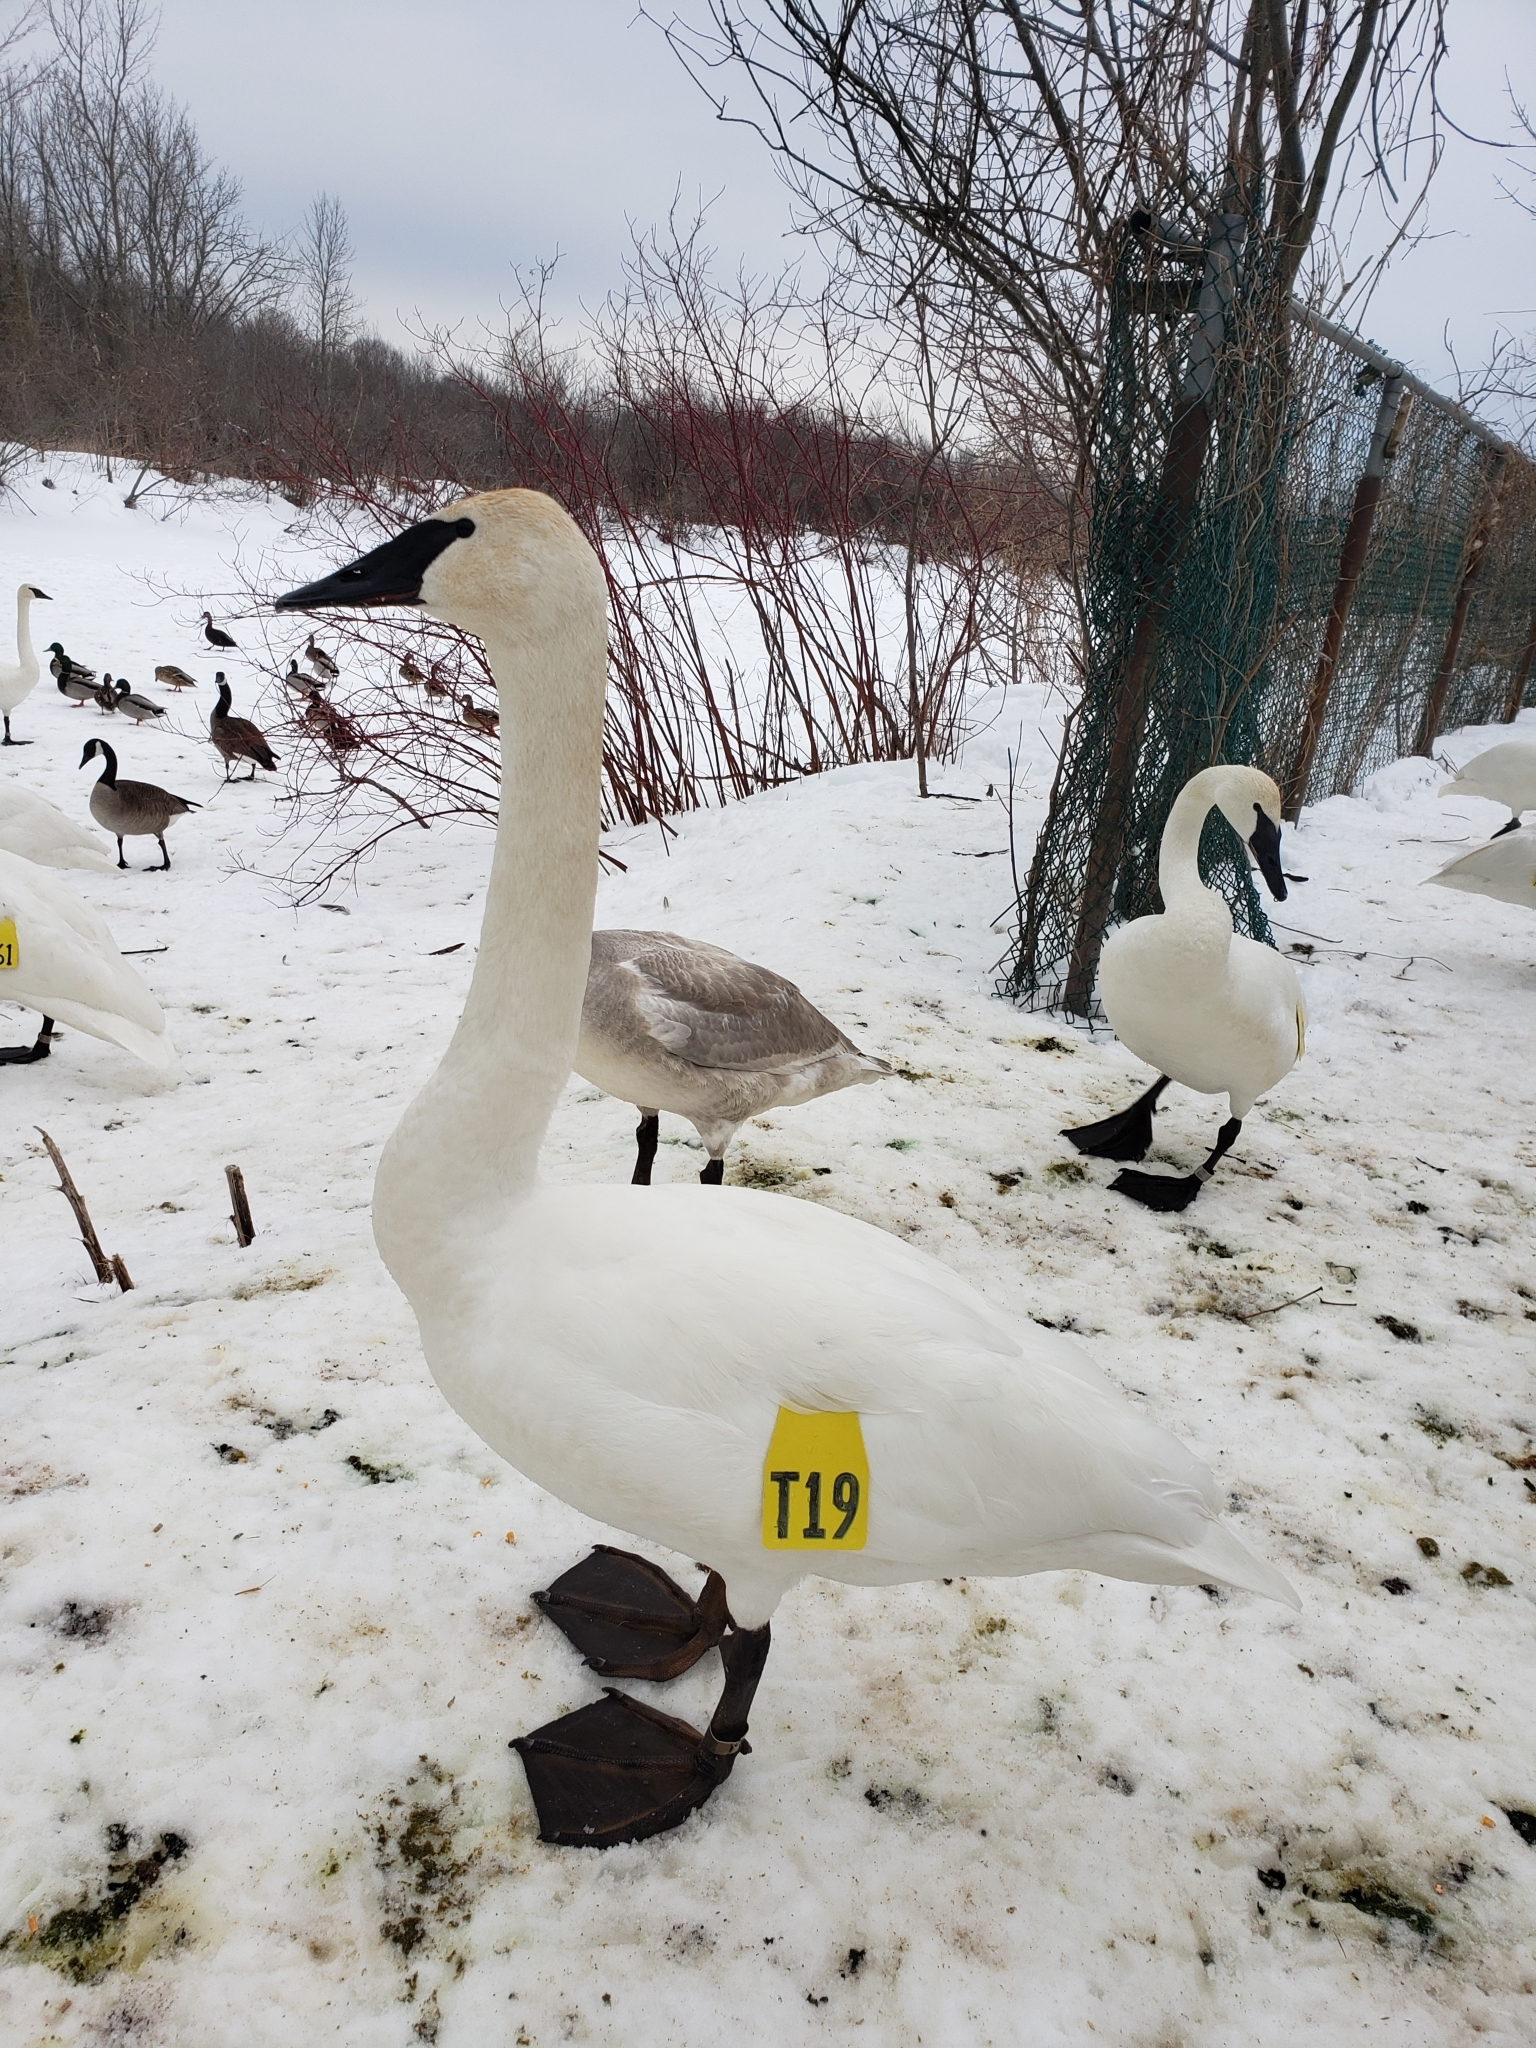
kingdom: Animalia
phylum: Chordata
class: Aves
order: Anseriformes
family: Anatidae
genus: Cygnus
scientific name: Cygnus buccinator
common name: Trumpeter swan
